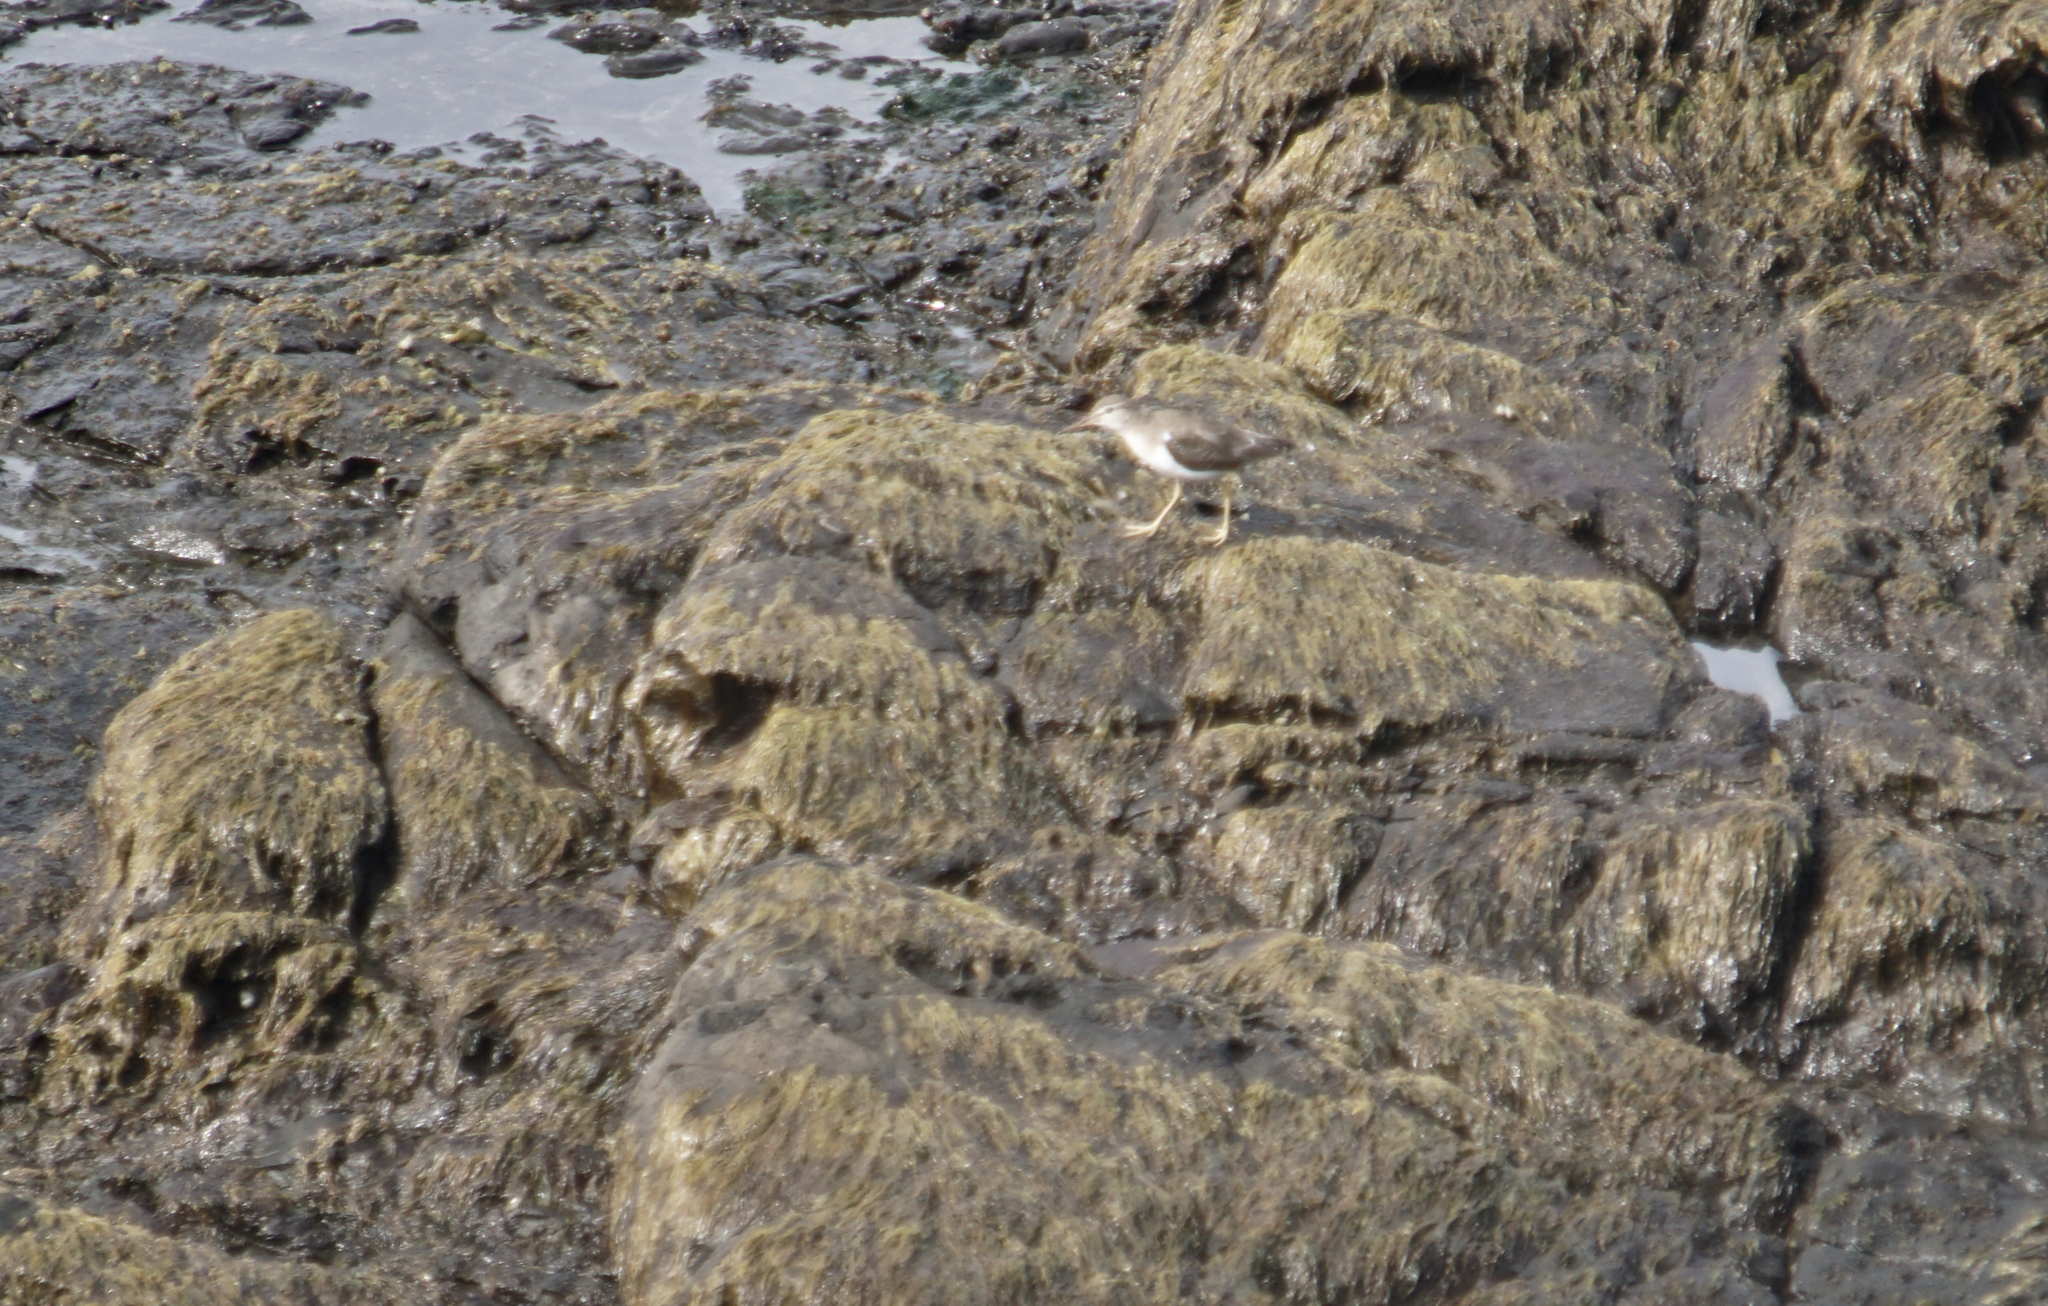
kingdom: Animalia
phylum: Chordata
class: Aves
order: Charadriiformes
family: Scolopacidae
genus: Actitis
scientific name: Actitis macularius
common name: Spotted sandpiper
